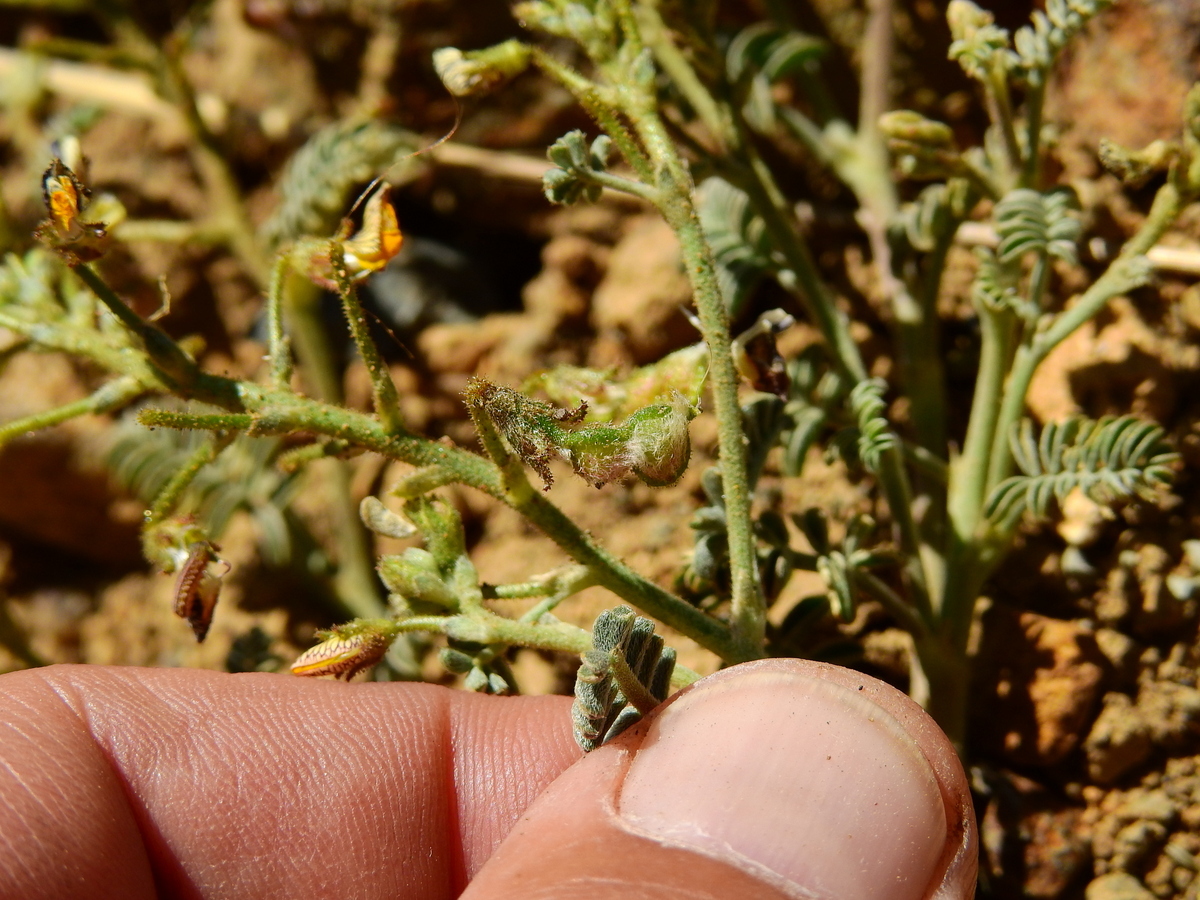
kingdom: Plantae
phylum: Tracheophyta
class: Magnoliopsida
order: Fabales
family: Fabaceae
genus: Adesmia
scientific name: Adesmia corymbosa
